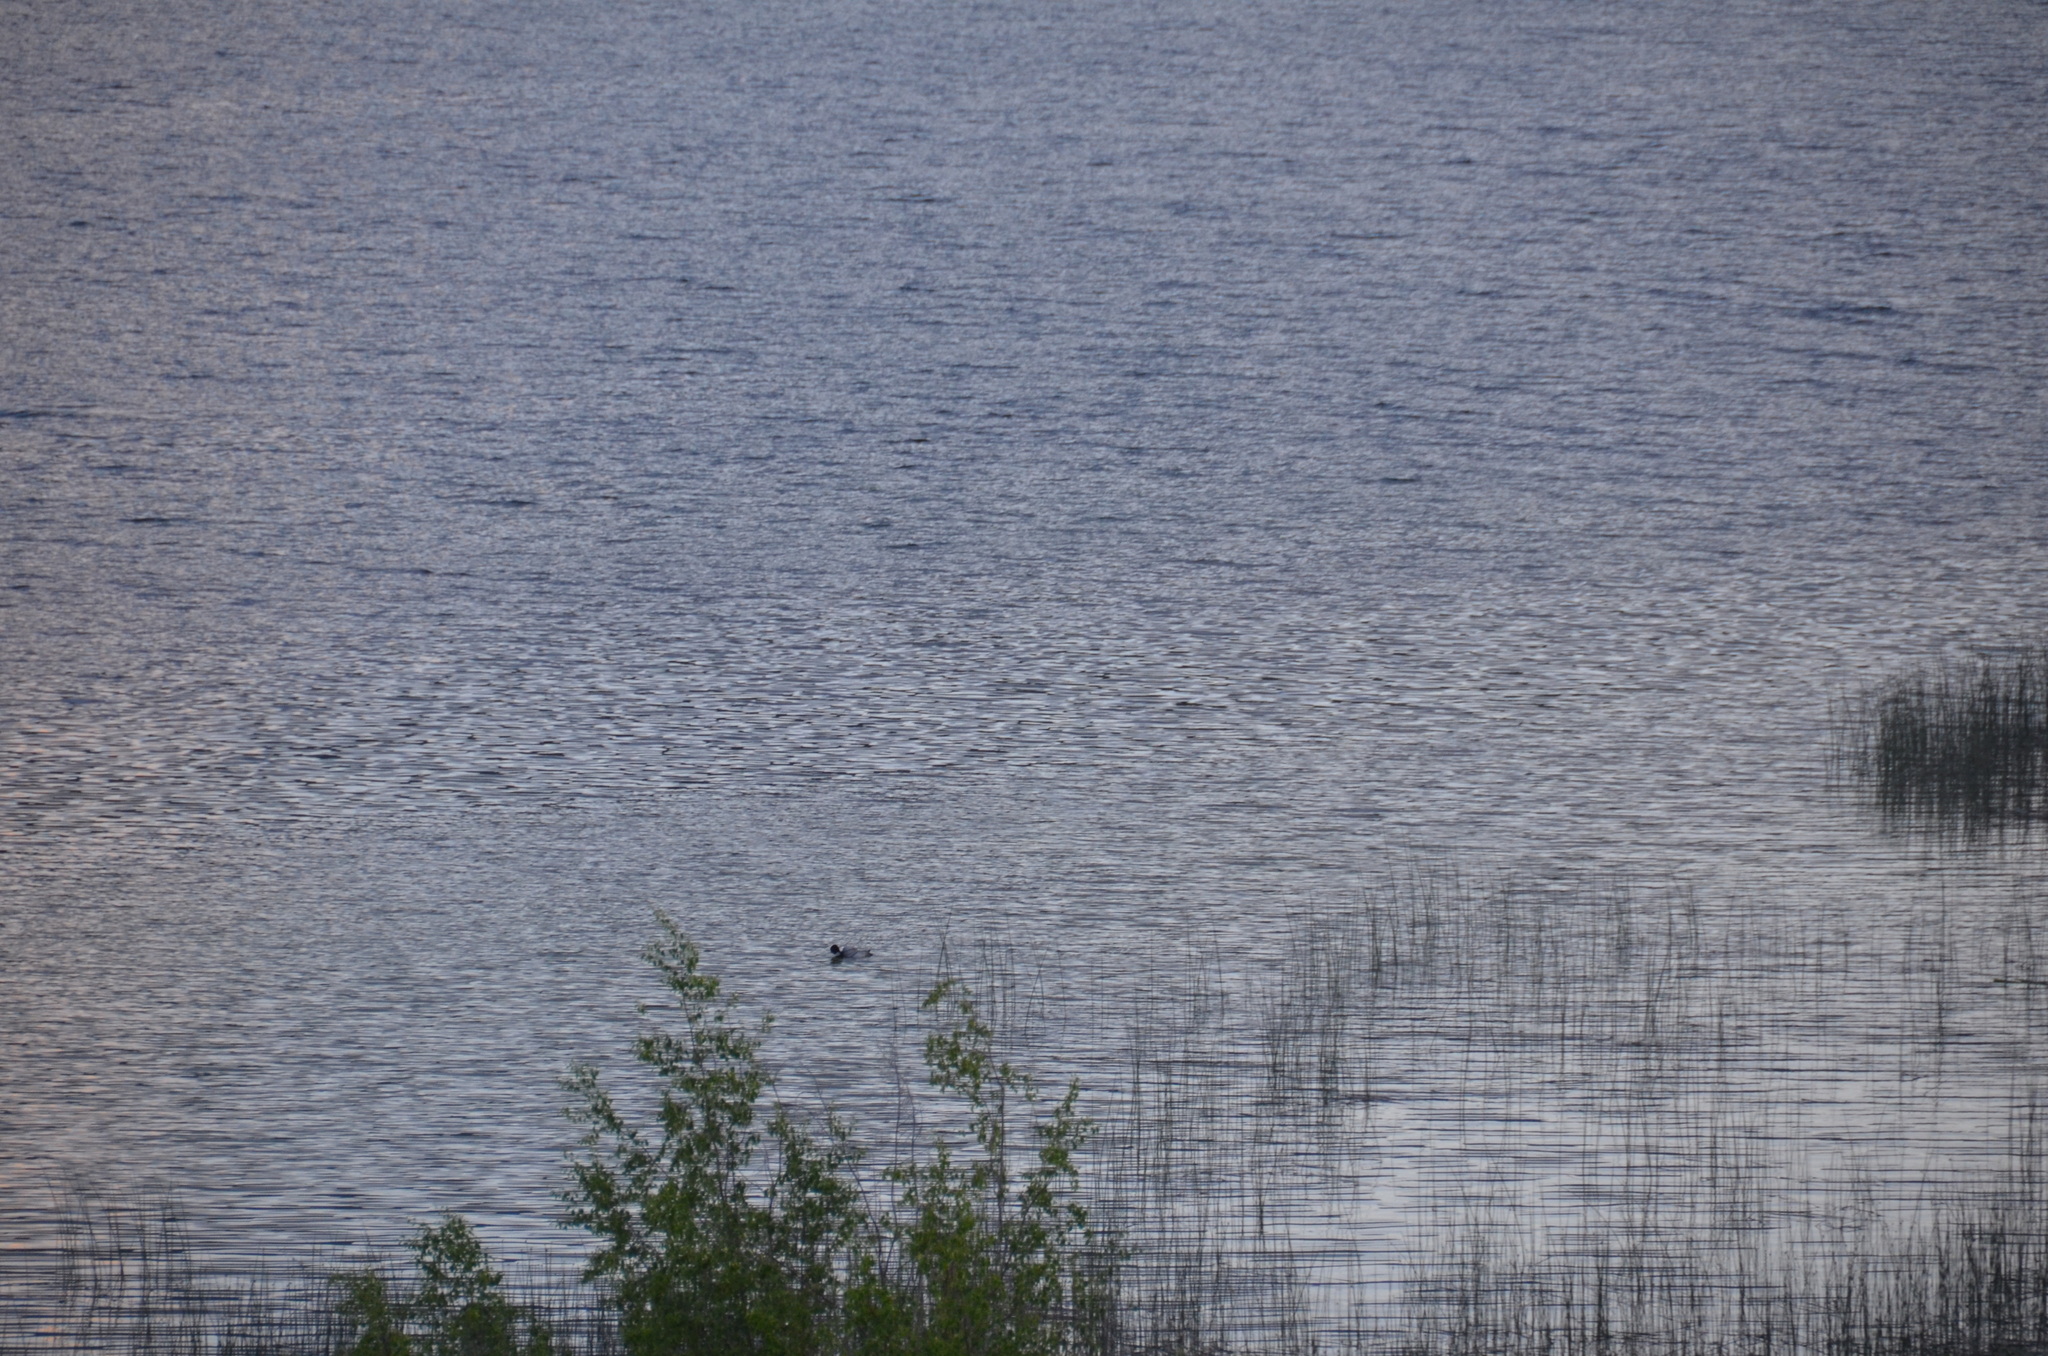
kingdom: Animalia
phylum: Chordata
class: Aves
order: Gaviiformes
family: Gaviidae
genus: Gavia
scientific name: Gavia immer
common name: Common loon
